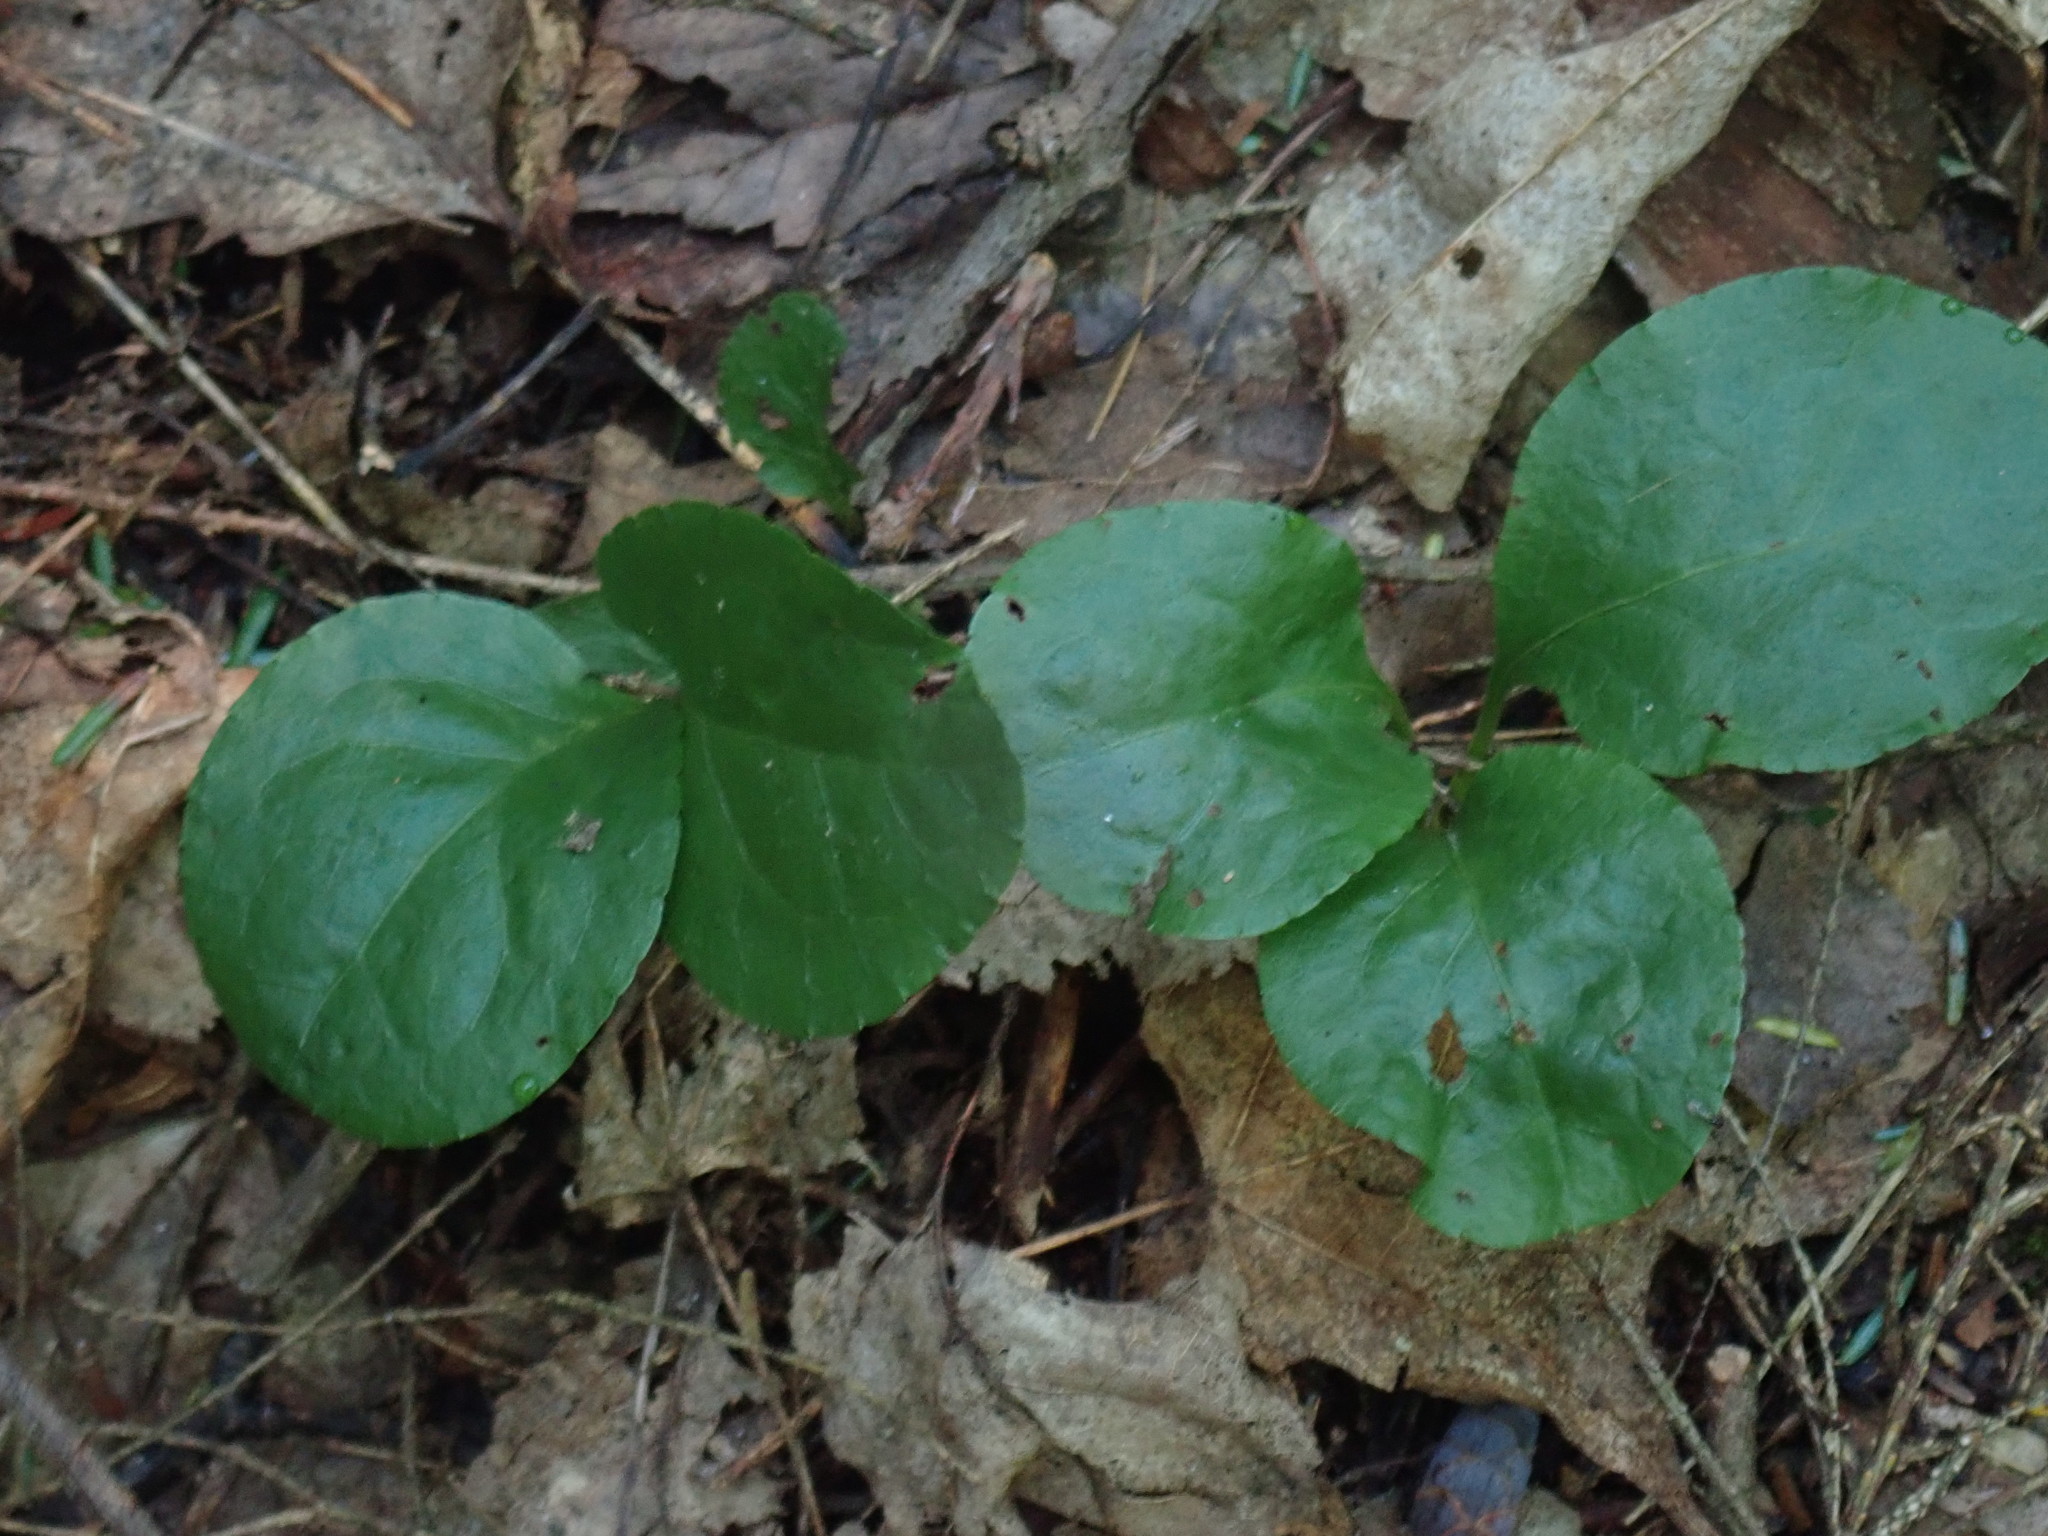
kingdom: Plantae
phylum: Tracheophyta
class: Magnoliopsida
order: Ericales
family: Ericaceae
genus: Pyrola
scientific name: Pyrola elliptica
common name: Shinleaf
